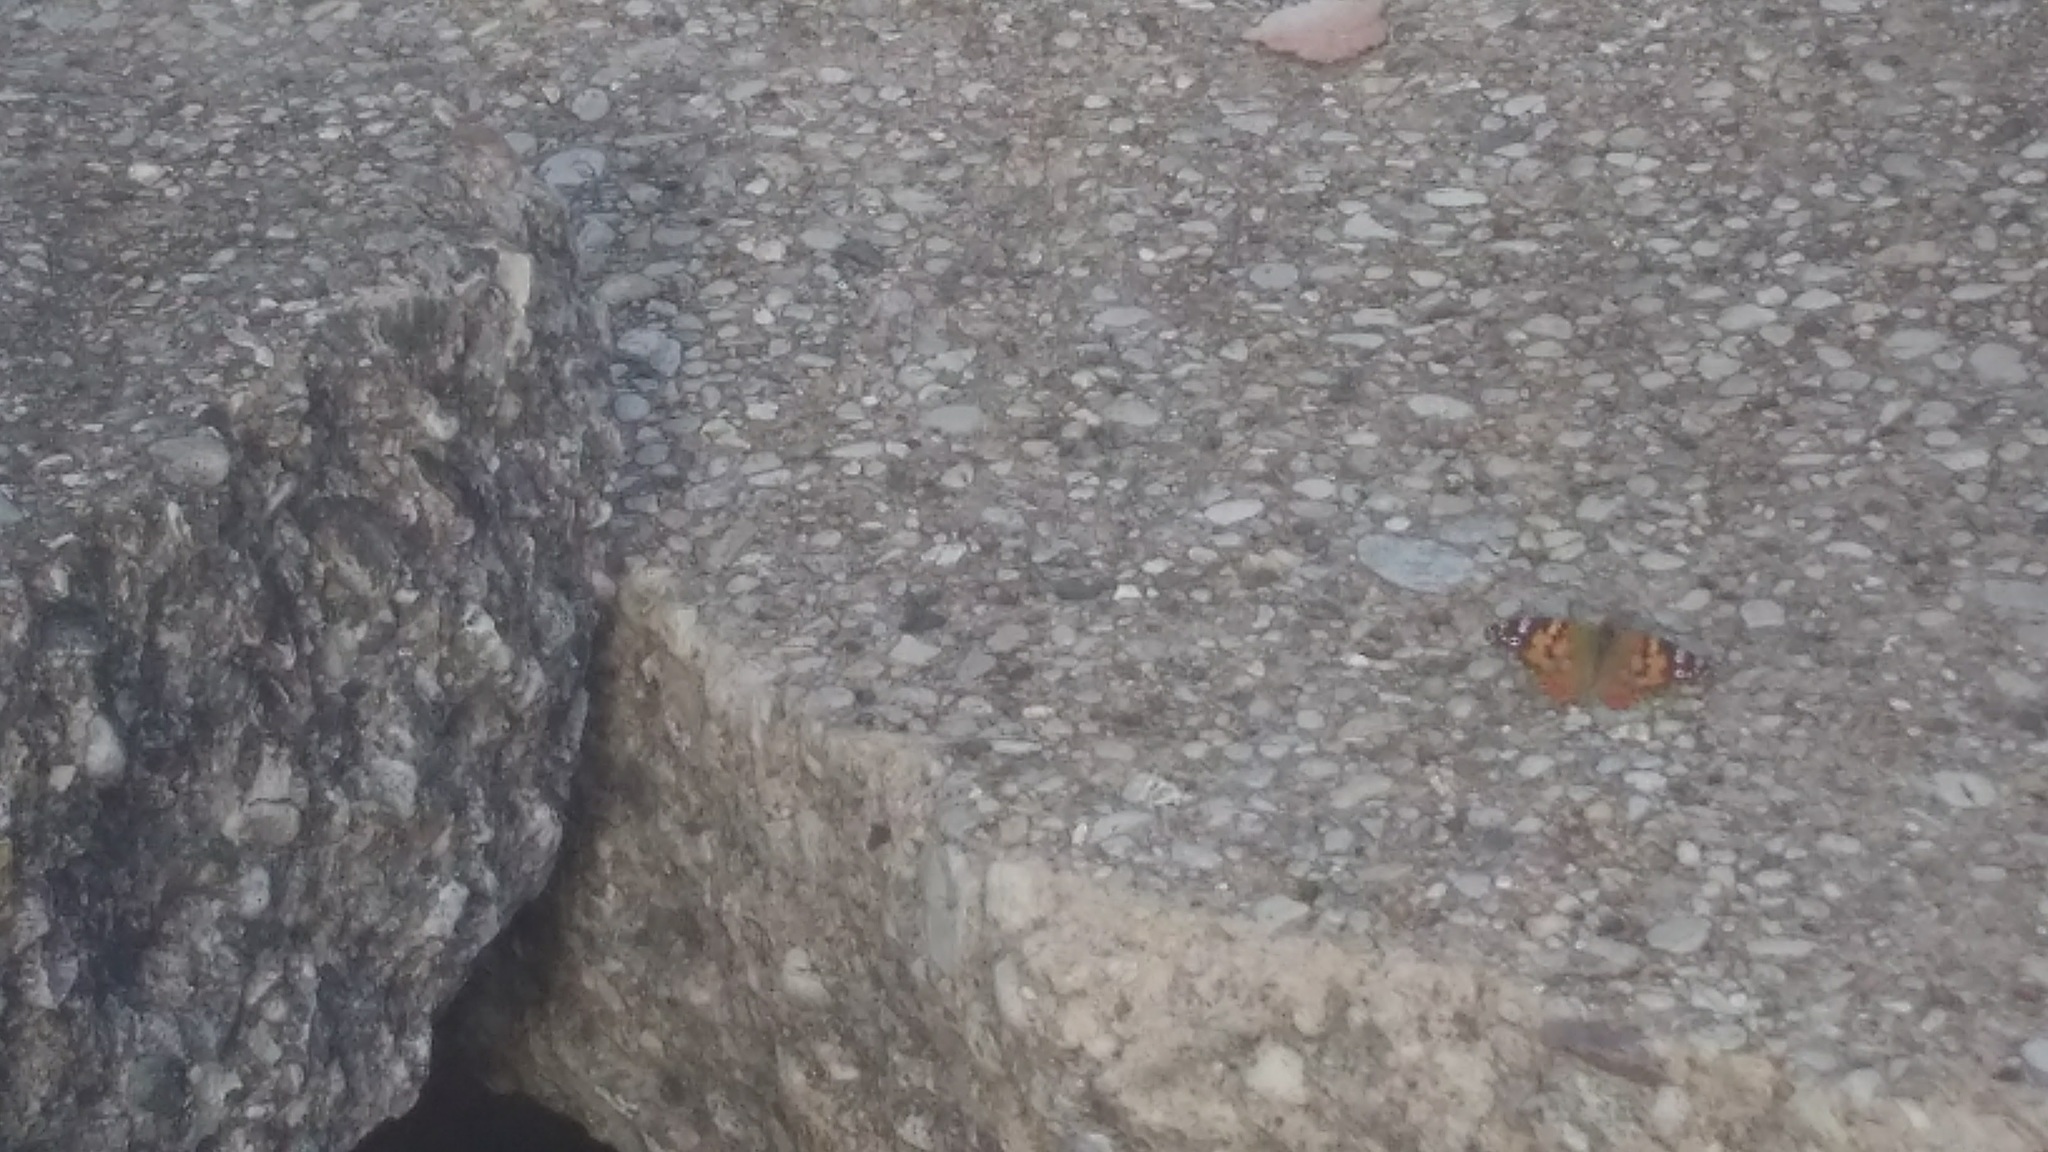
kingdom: Animalia
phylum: Arthropoda
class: Insecta
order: Lepidoptera
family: Nymphalidae
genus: Vanessa
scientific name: Vanessa cardui
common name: Painted lady
